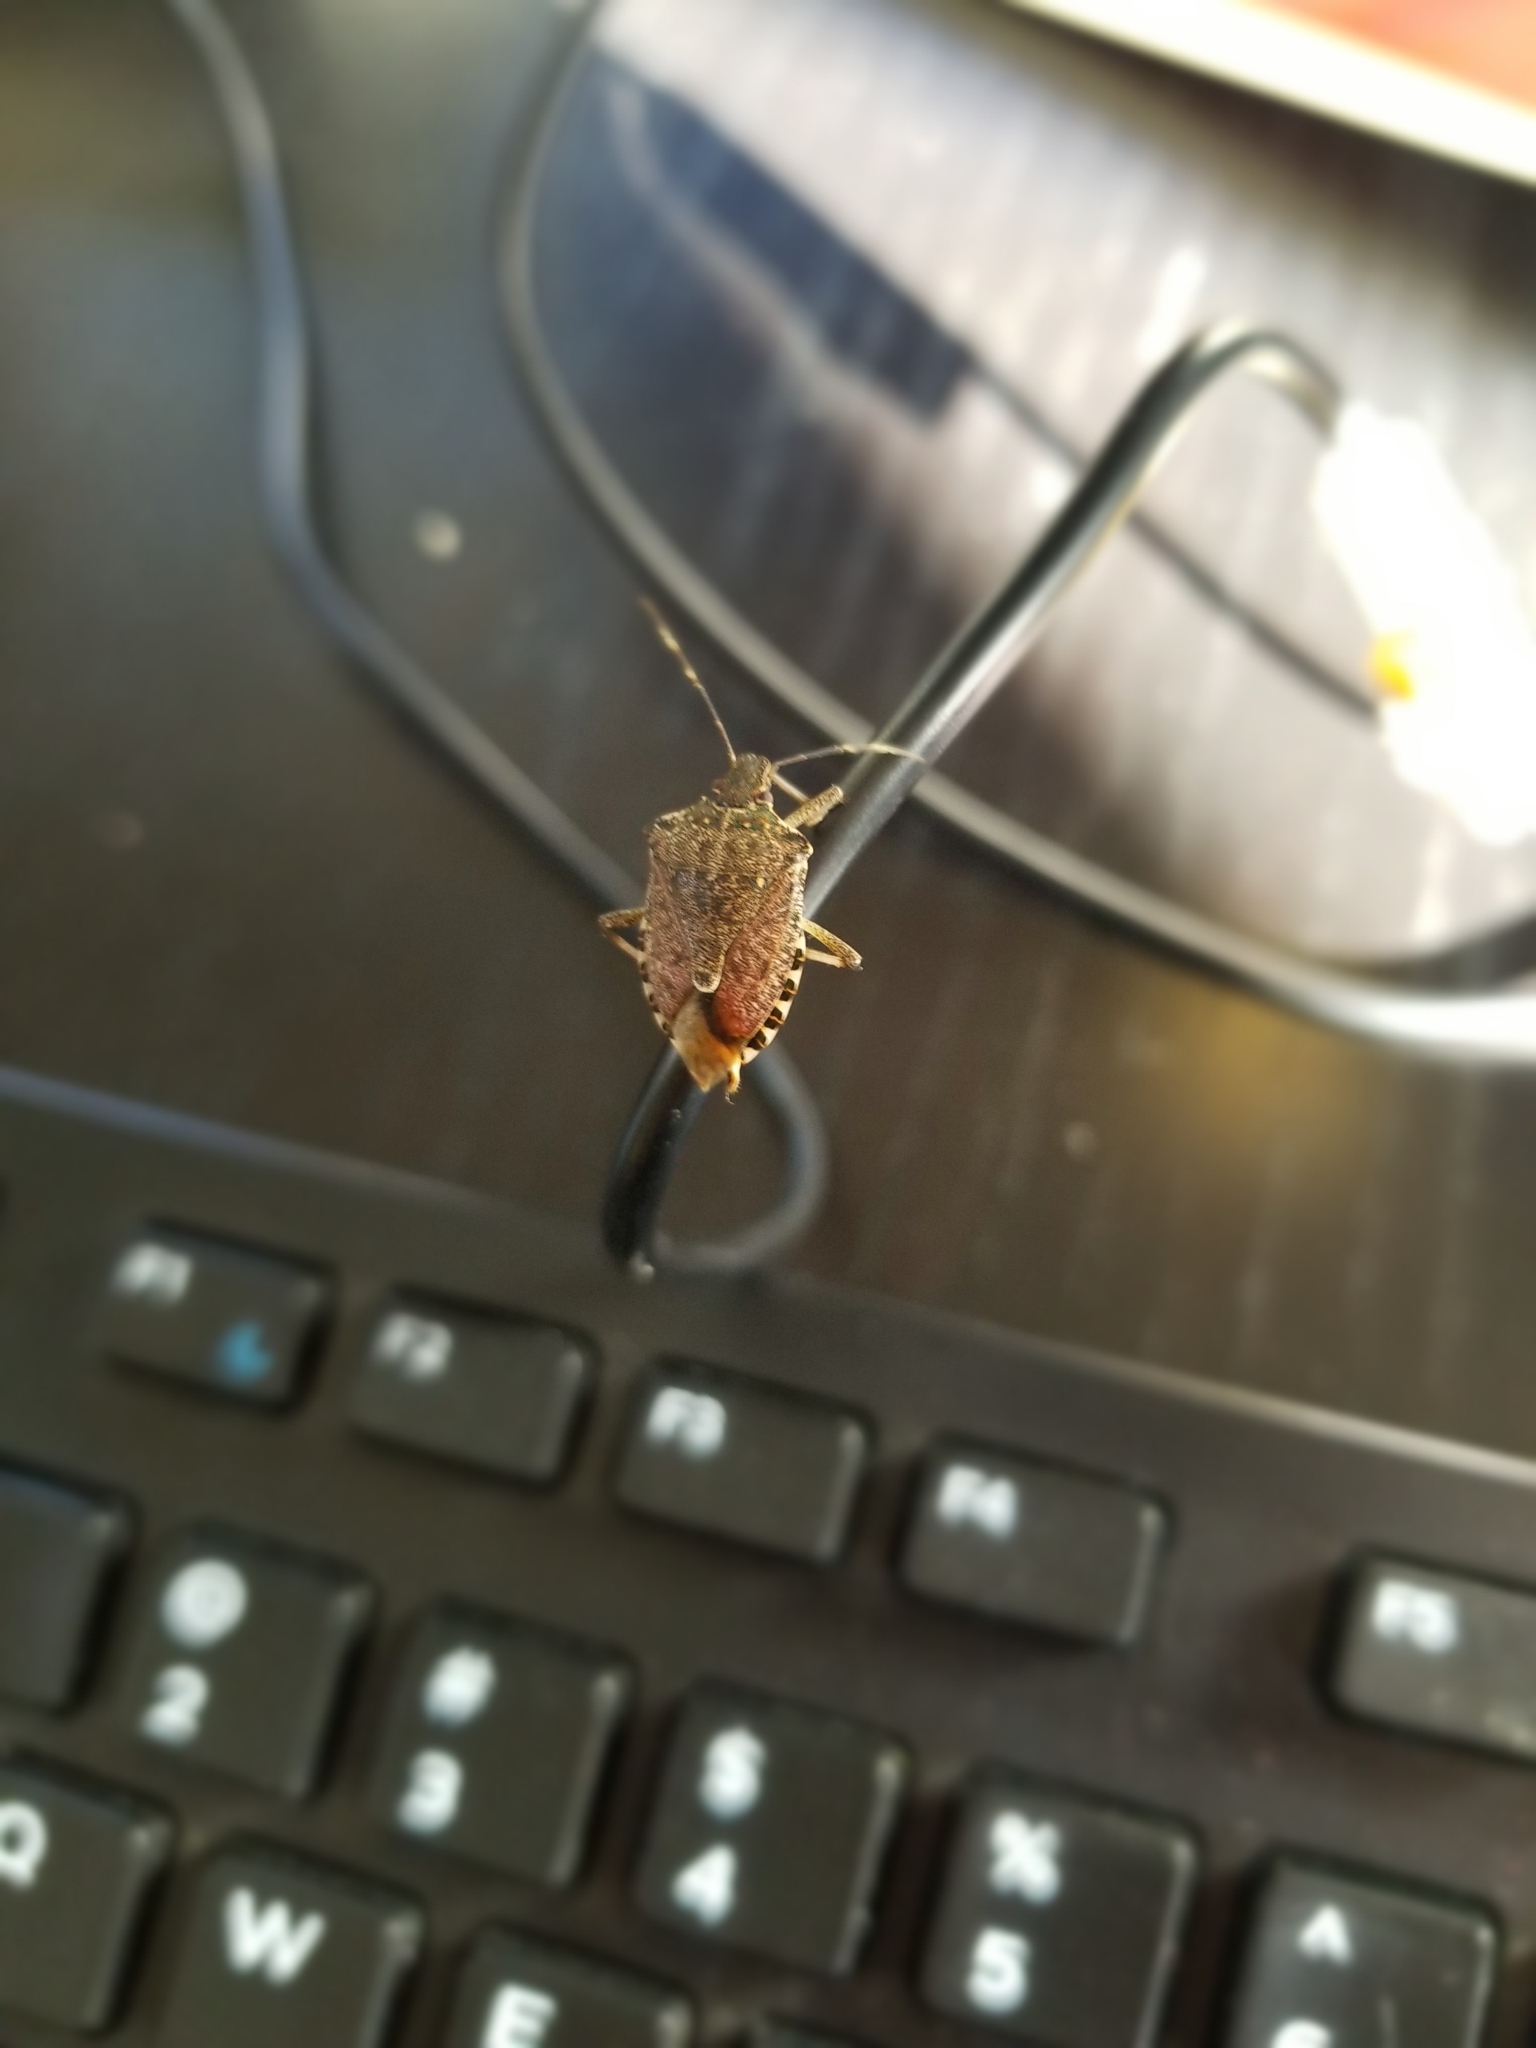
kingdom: Animalia
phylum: Arthropoda
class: Insecta
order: Hemiptera
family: Pentatomidae
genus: Halyomorpha
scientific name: Halyomorpha halys
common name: Brown marmorated stink bug
